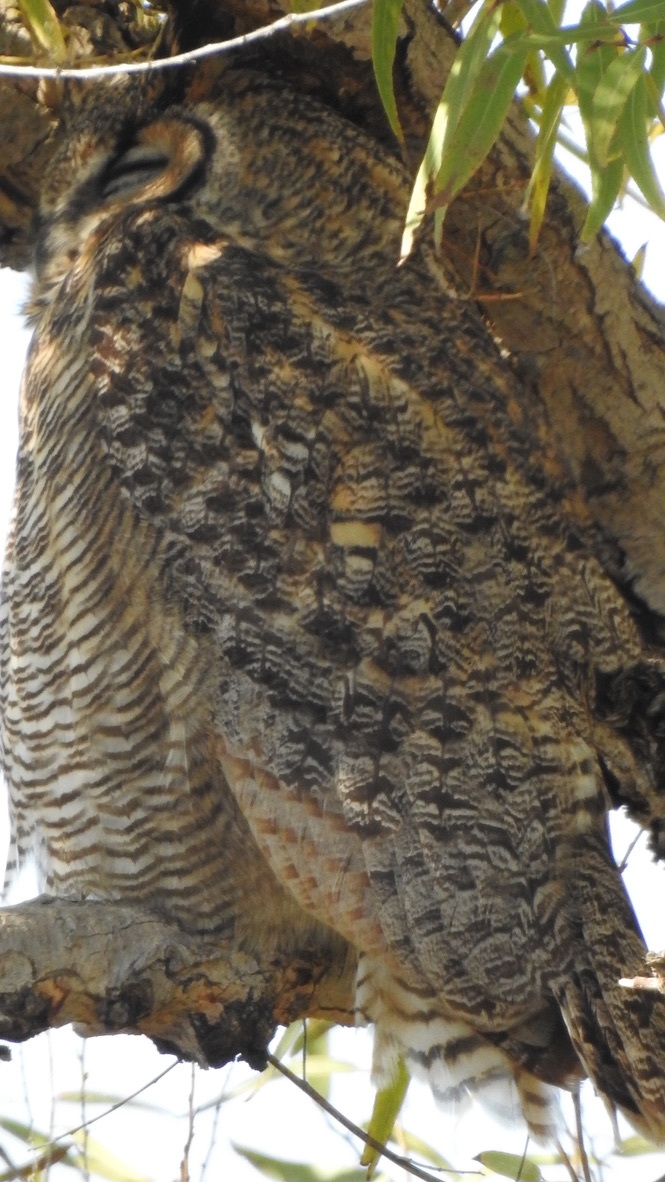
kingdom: Animalia
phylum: Chordata
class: Aves
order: Strigiformes
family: Strigidae
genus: Bubo
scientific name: Bubo virginianus
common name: Great horned owl
